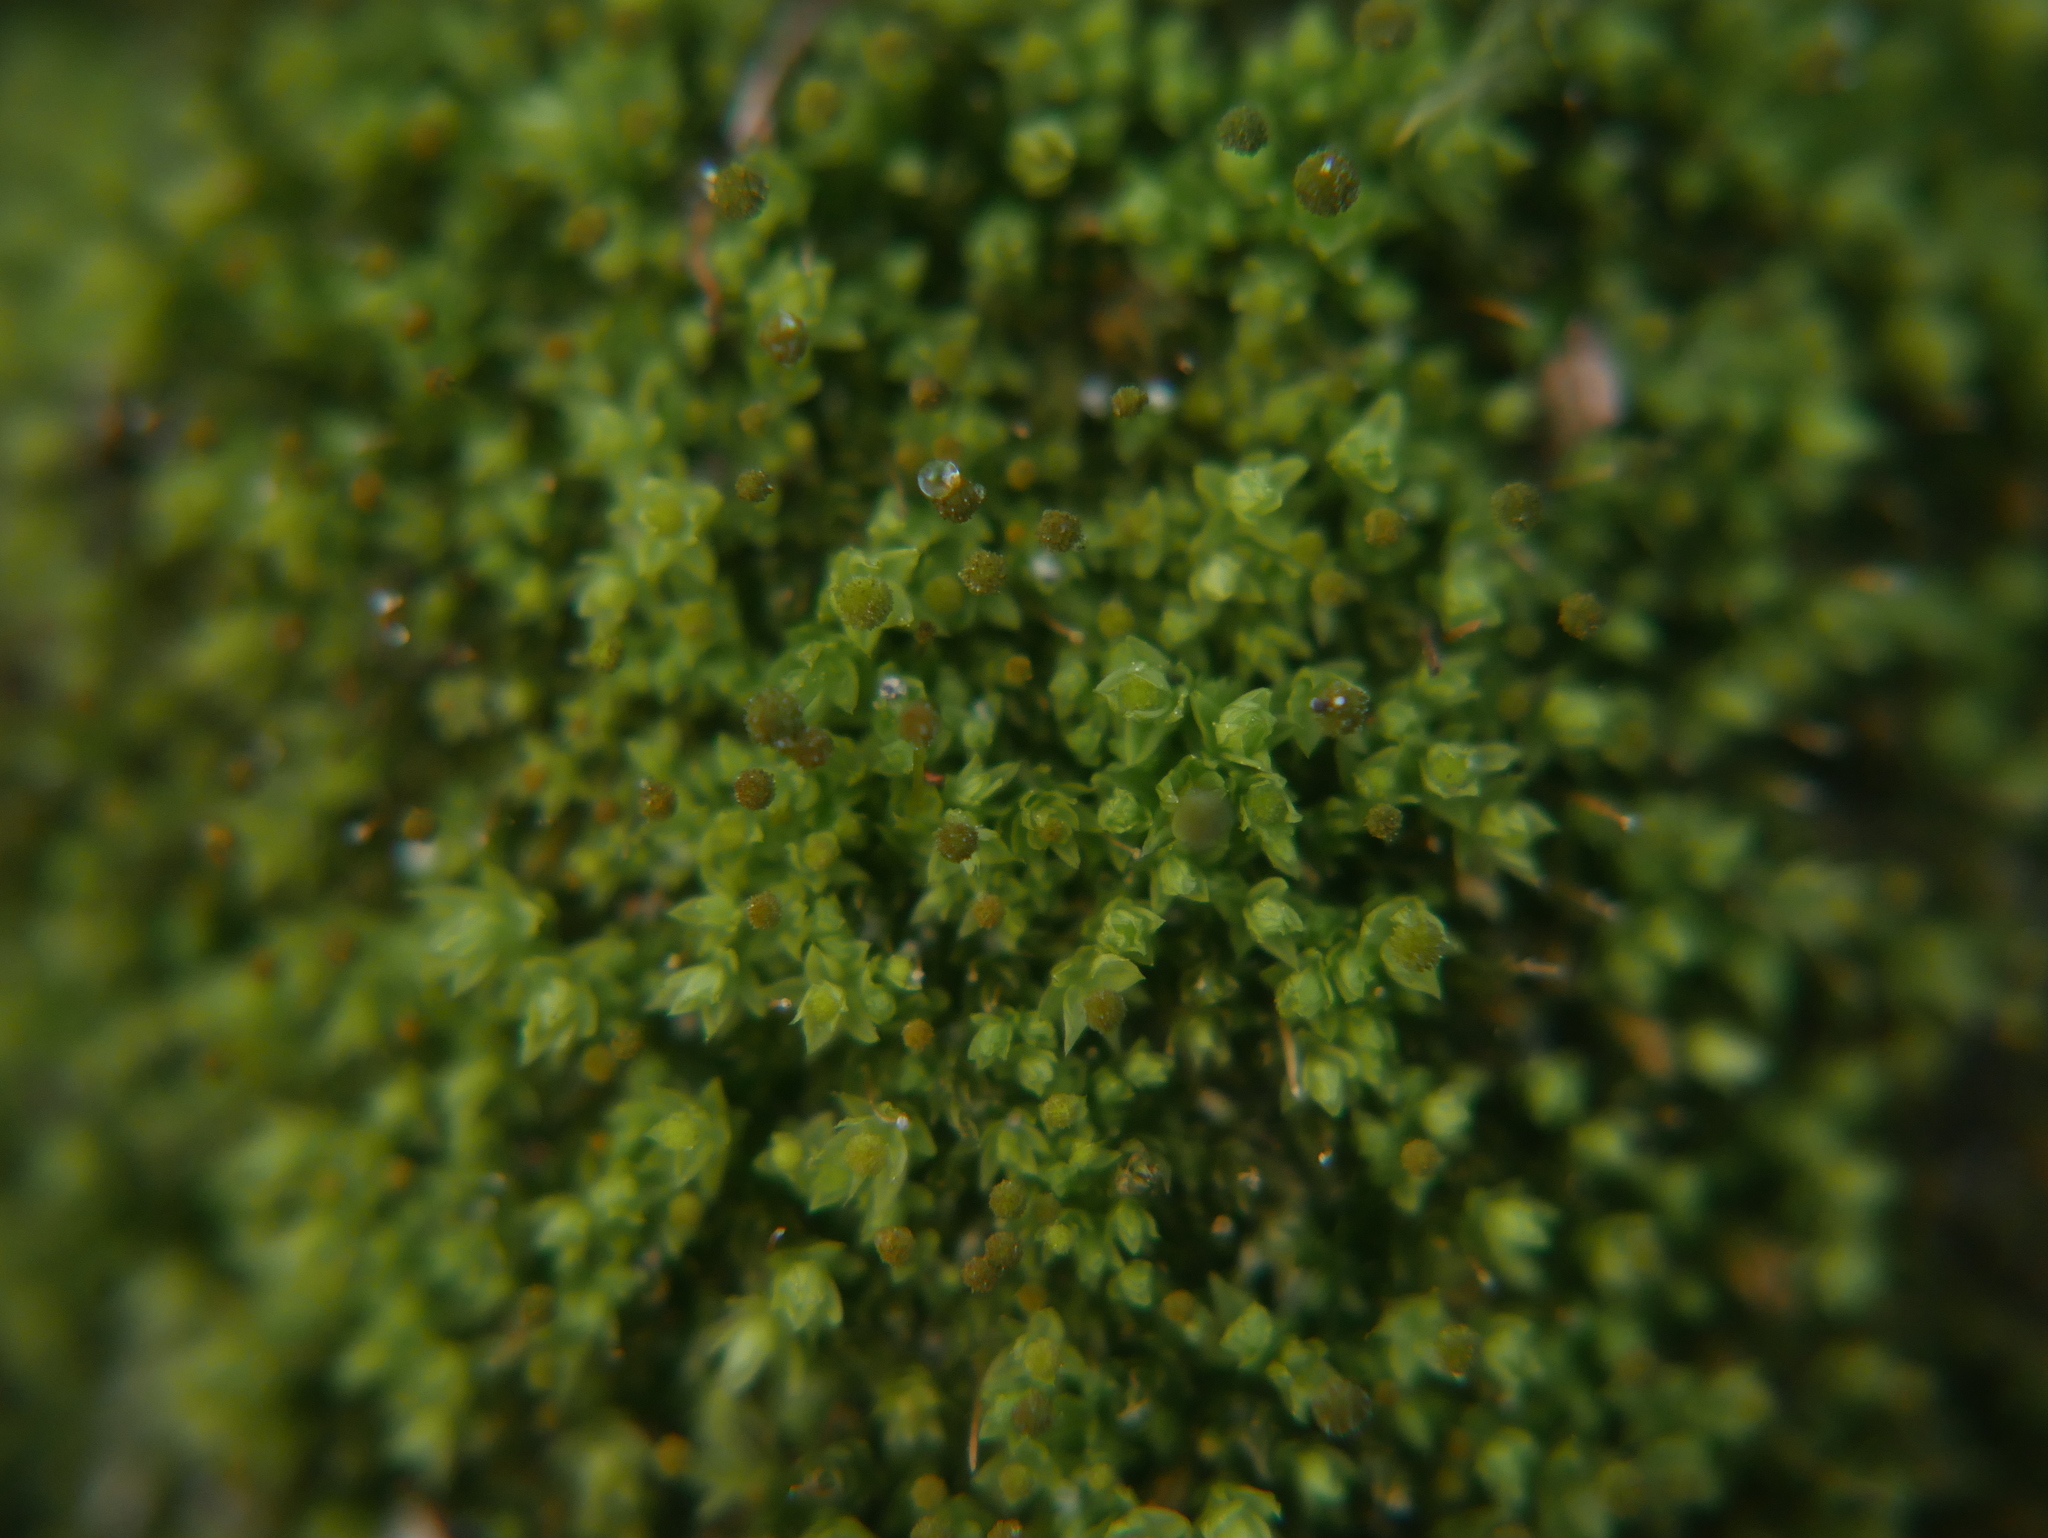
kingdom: Plantae
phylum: Bryophyta
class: Bryopsida
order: Aulacomniales
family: Aulacomniaceae
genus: Aulacomnium
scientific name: Aulacomnium androgynum
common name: Little groove moss
